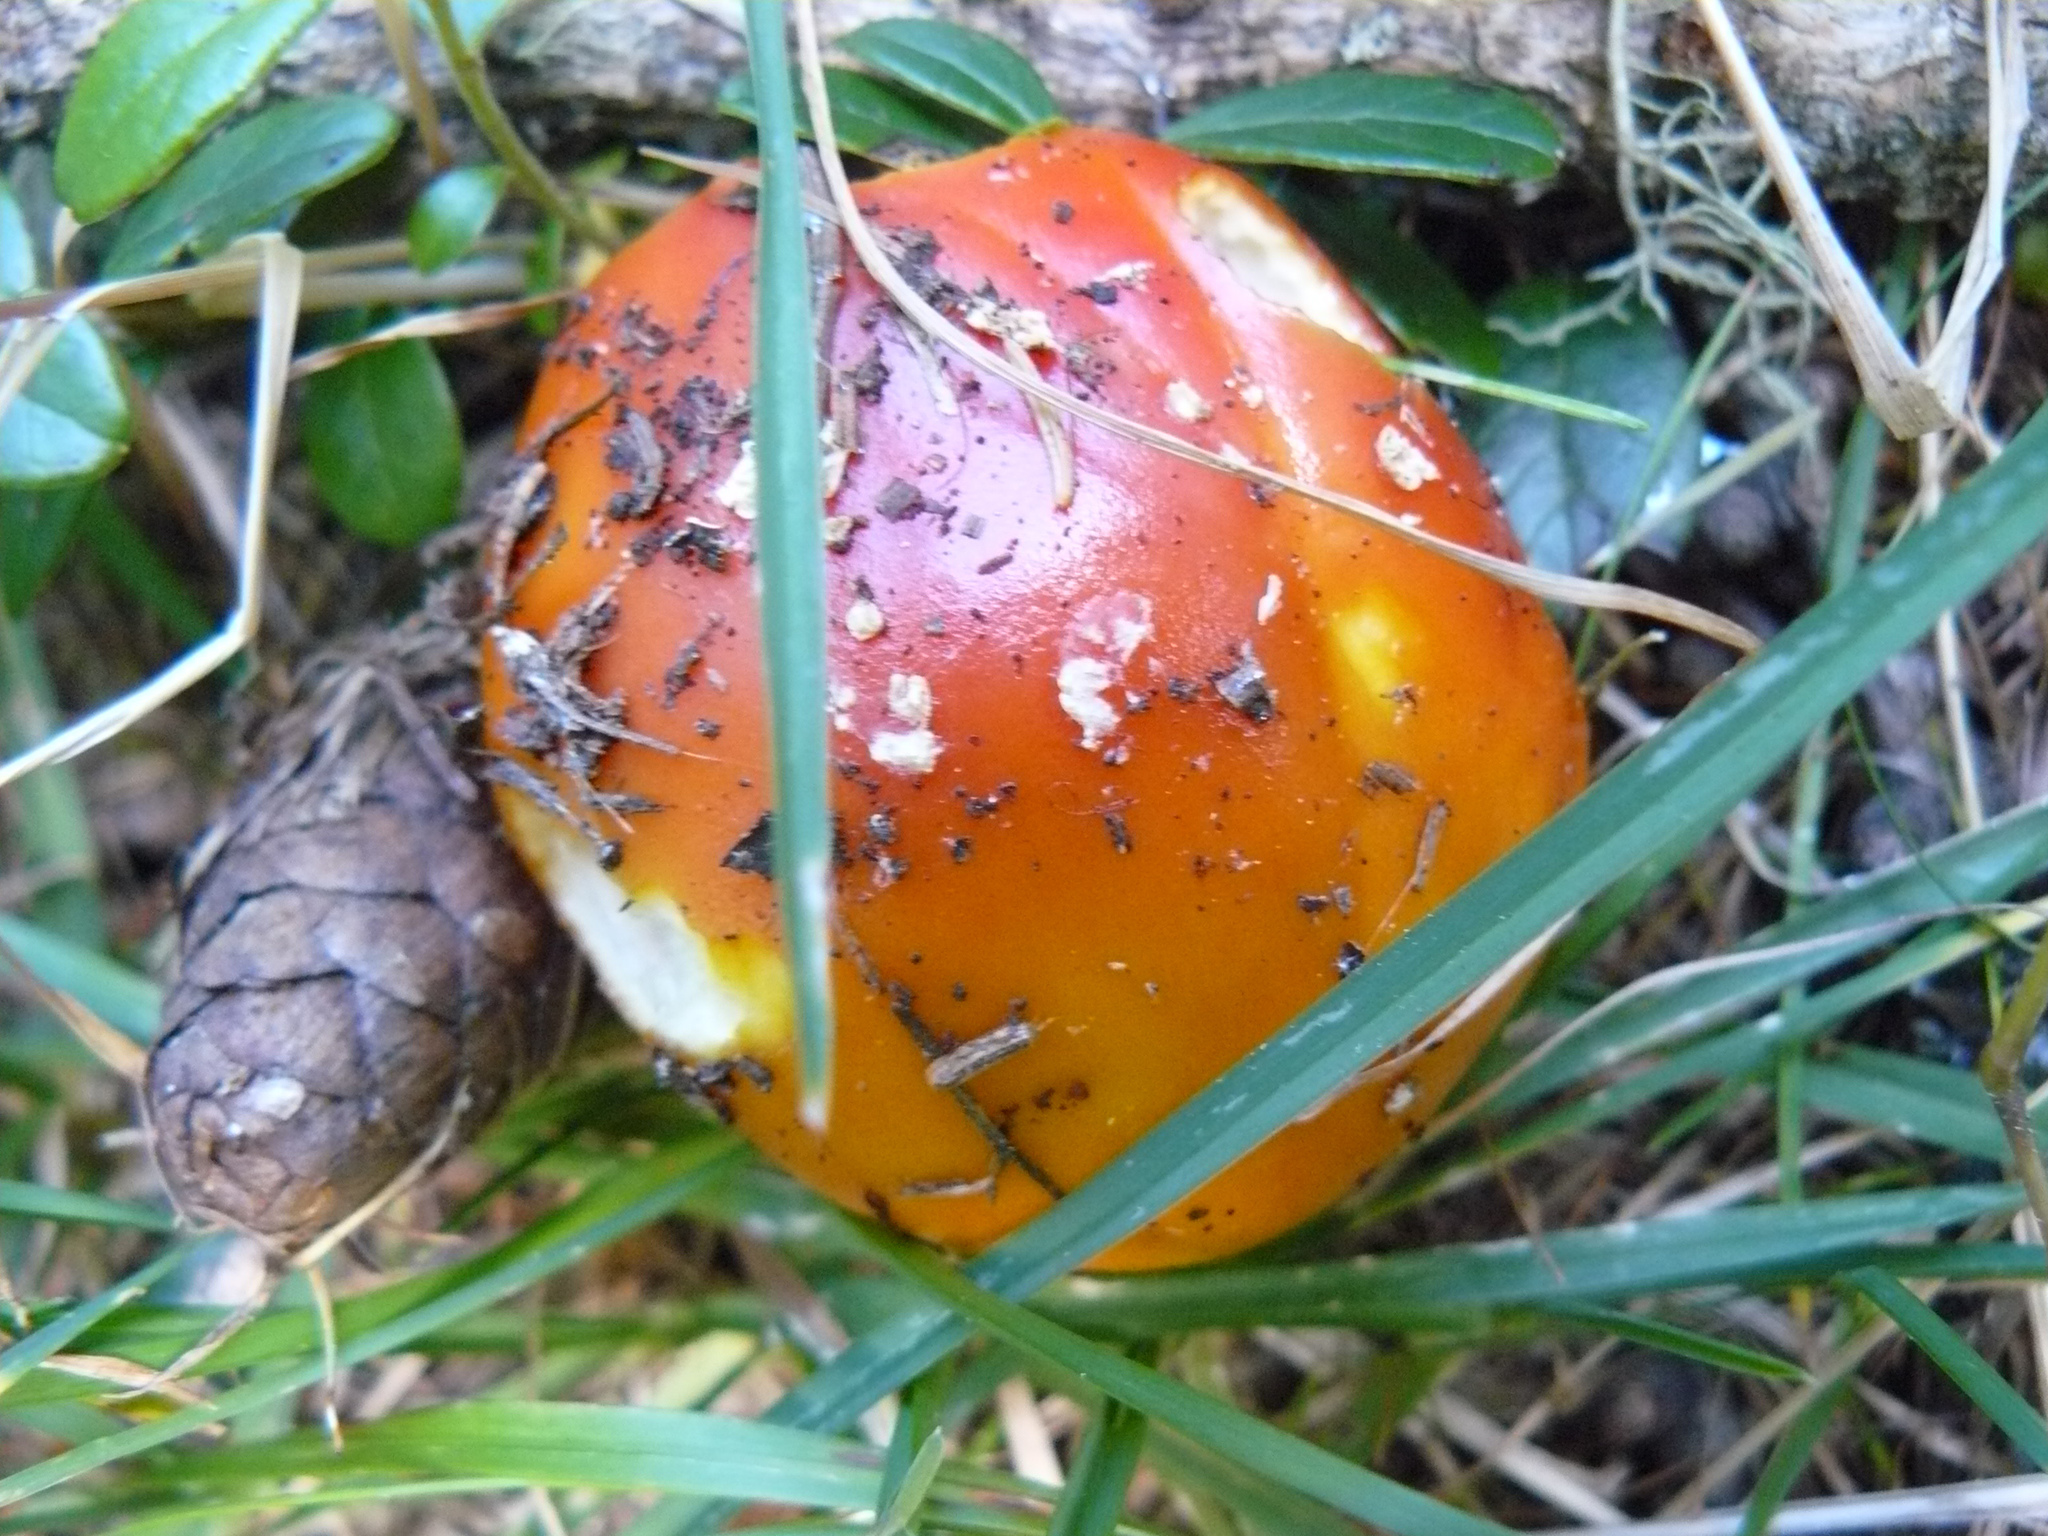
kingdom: Fungi
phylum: Basidiomycota
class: Agaricomycetes
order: Agaricales
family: Amanitaceae
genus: Amanita
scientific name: Amanita muscaria
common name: Fly agaric
